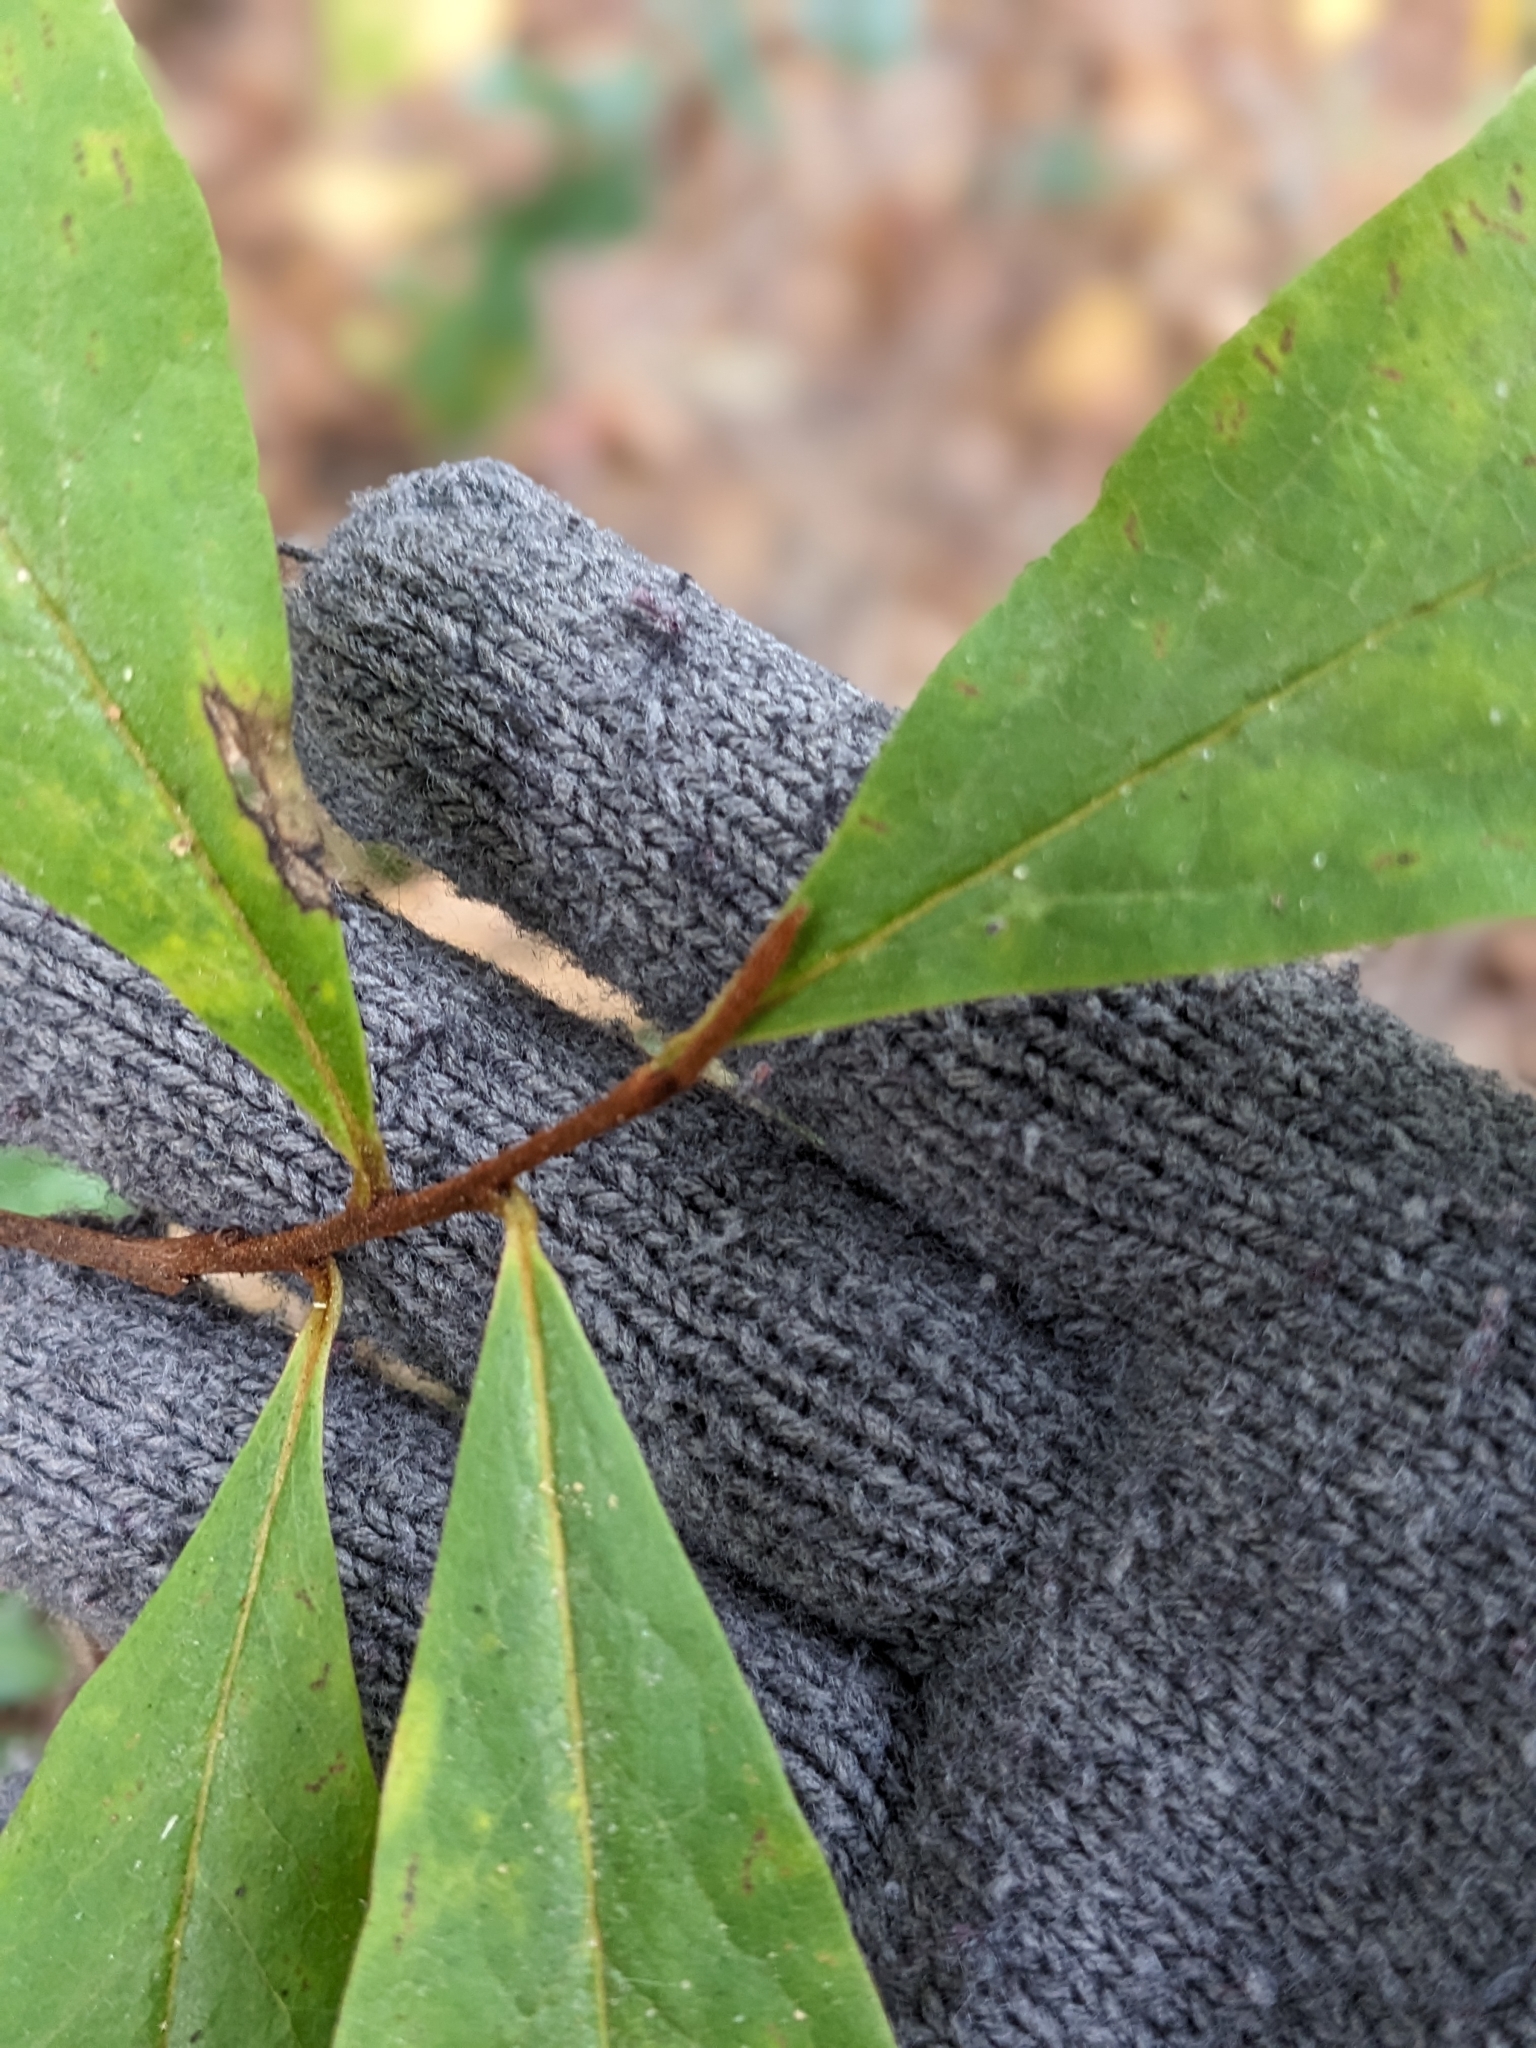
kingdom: Plantae
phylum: Tracheophyta
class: Magnoliopsida
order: Magnoliales
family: Annonaceae
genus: Asimina
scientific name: Asimina parviflora
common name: Dwarf pawpaw
